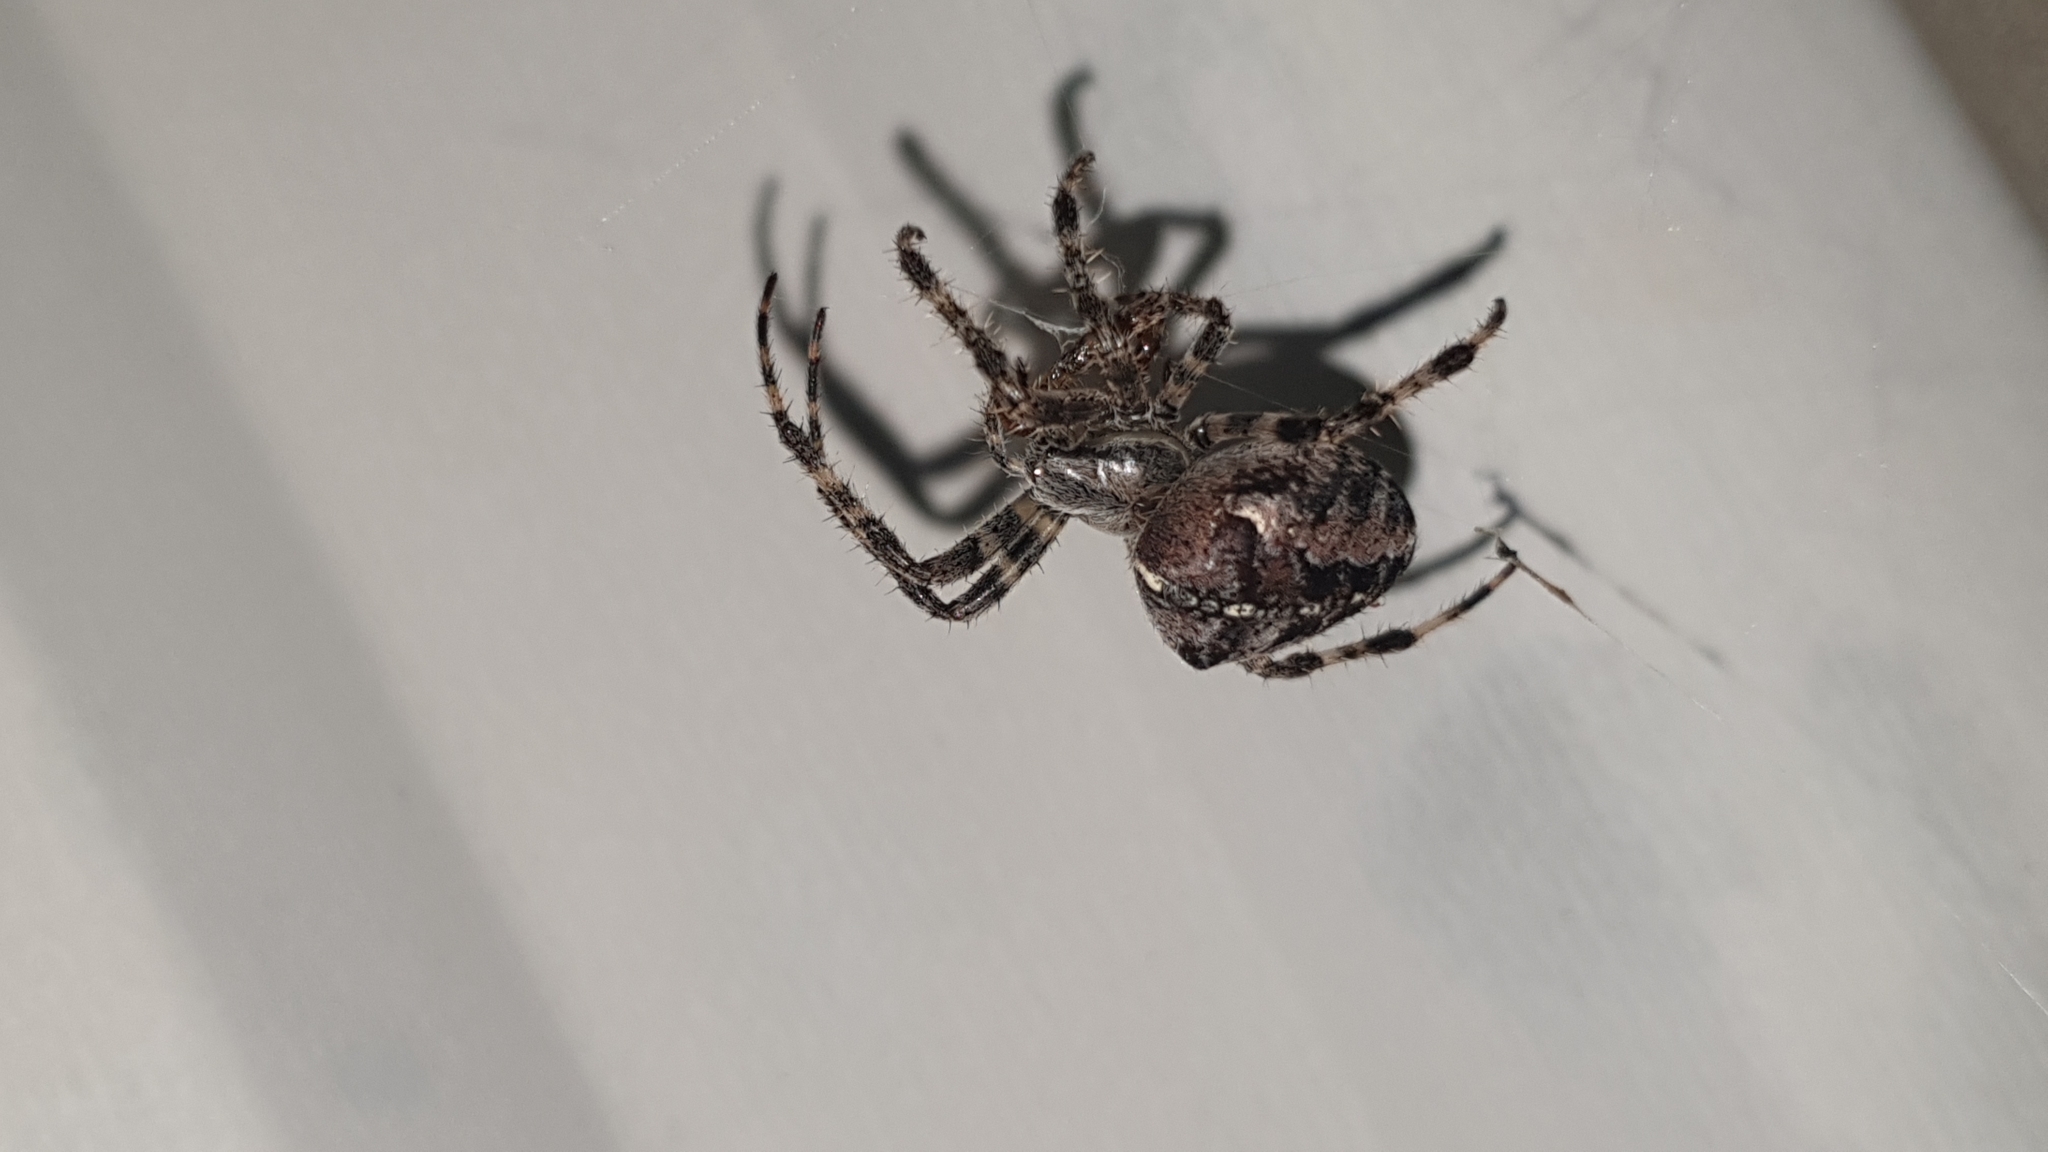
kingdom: Animalia
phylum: Arthropoda
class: Arachnida
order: Araneae
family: Araneidae
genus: Araneus
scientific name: Araneus diadematus
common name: Cross orbweaver
